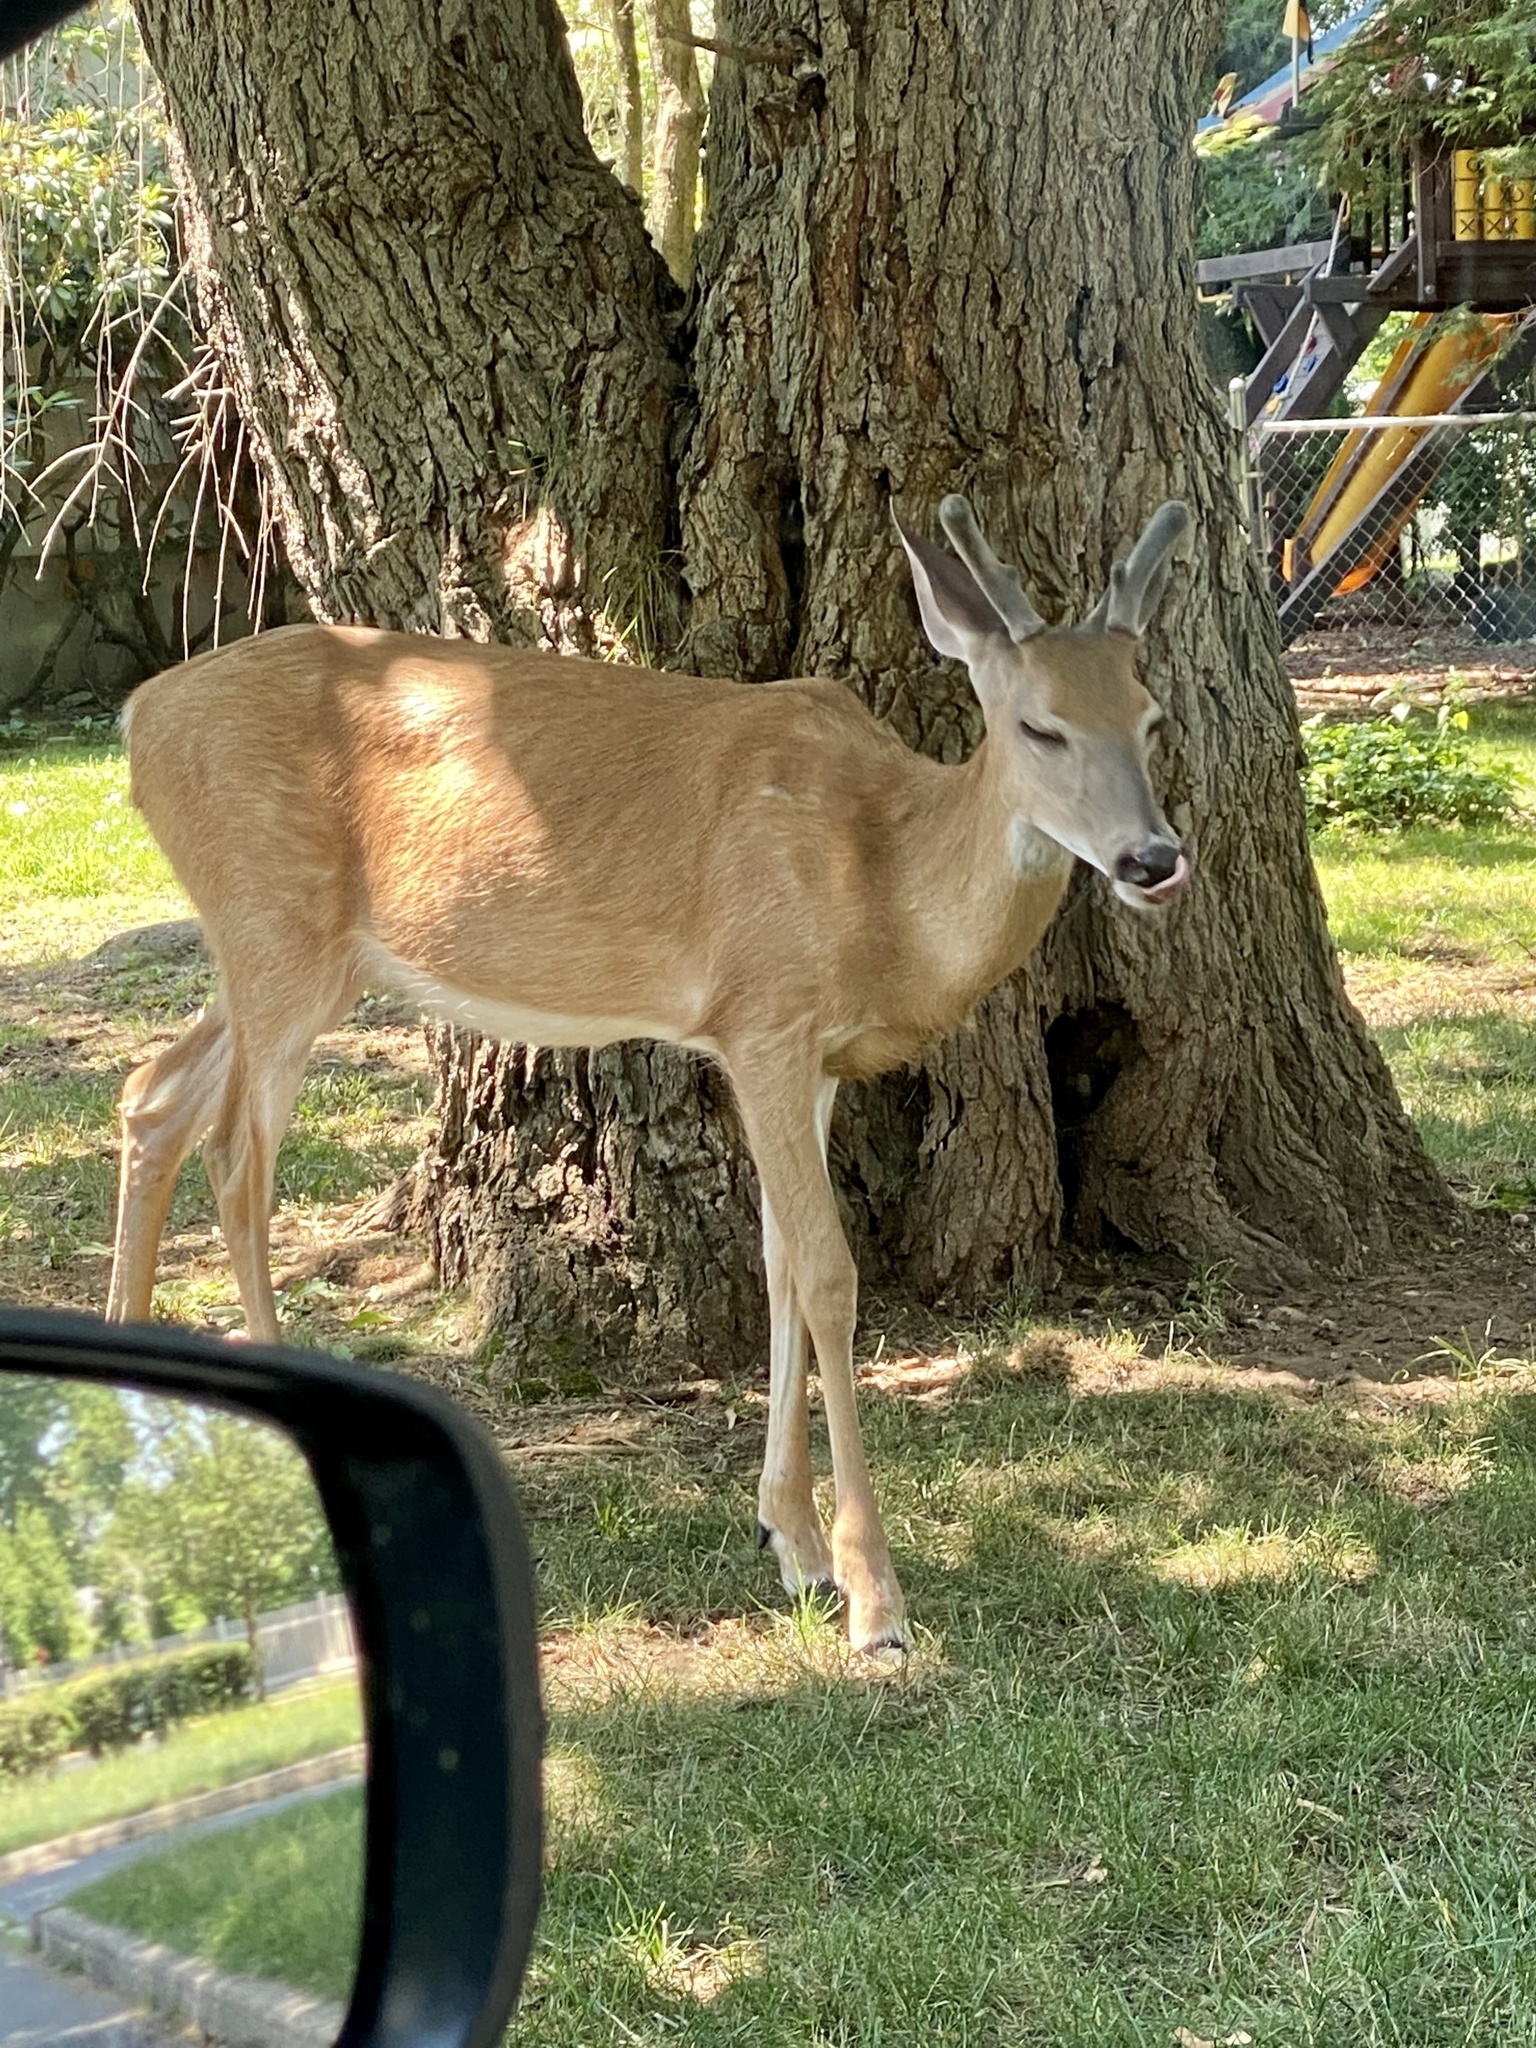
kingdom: Animalia
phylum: Chordata
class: Mammalia
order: Artiodactyla
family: Cervidae
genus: Odocoileus
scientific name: Odocoileus virginianus
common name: White-tailed deer
